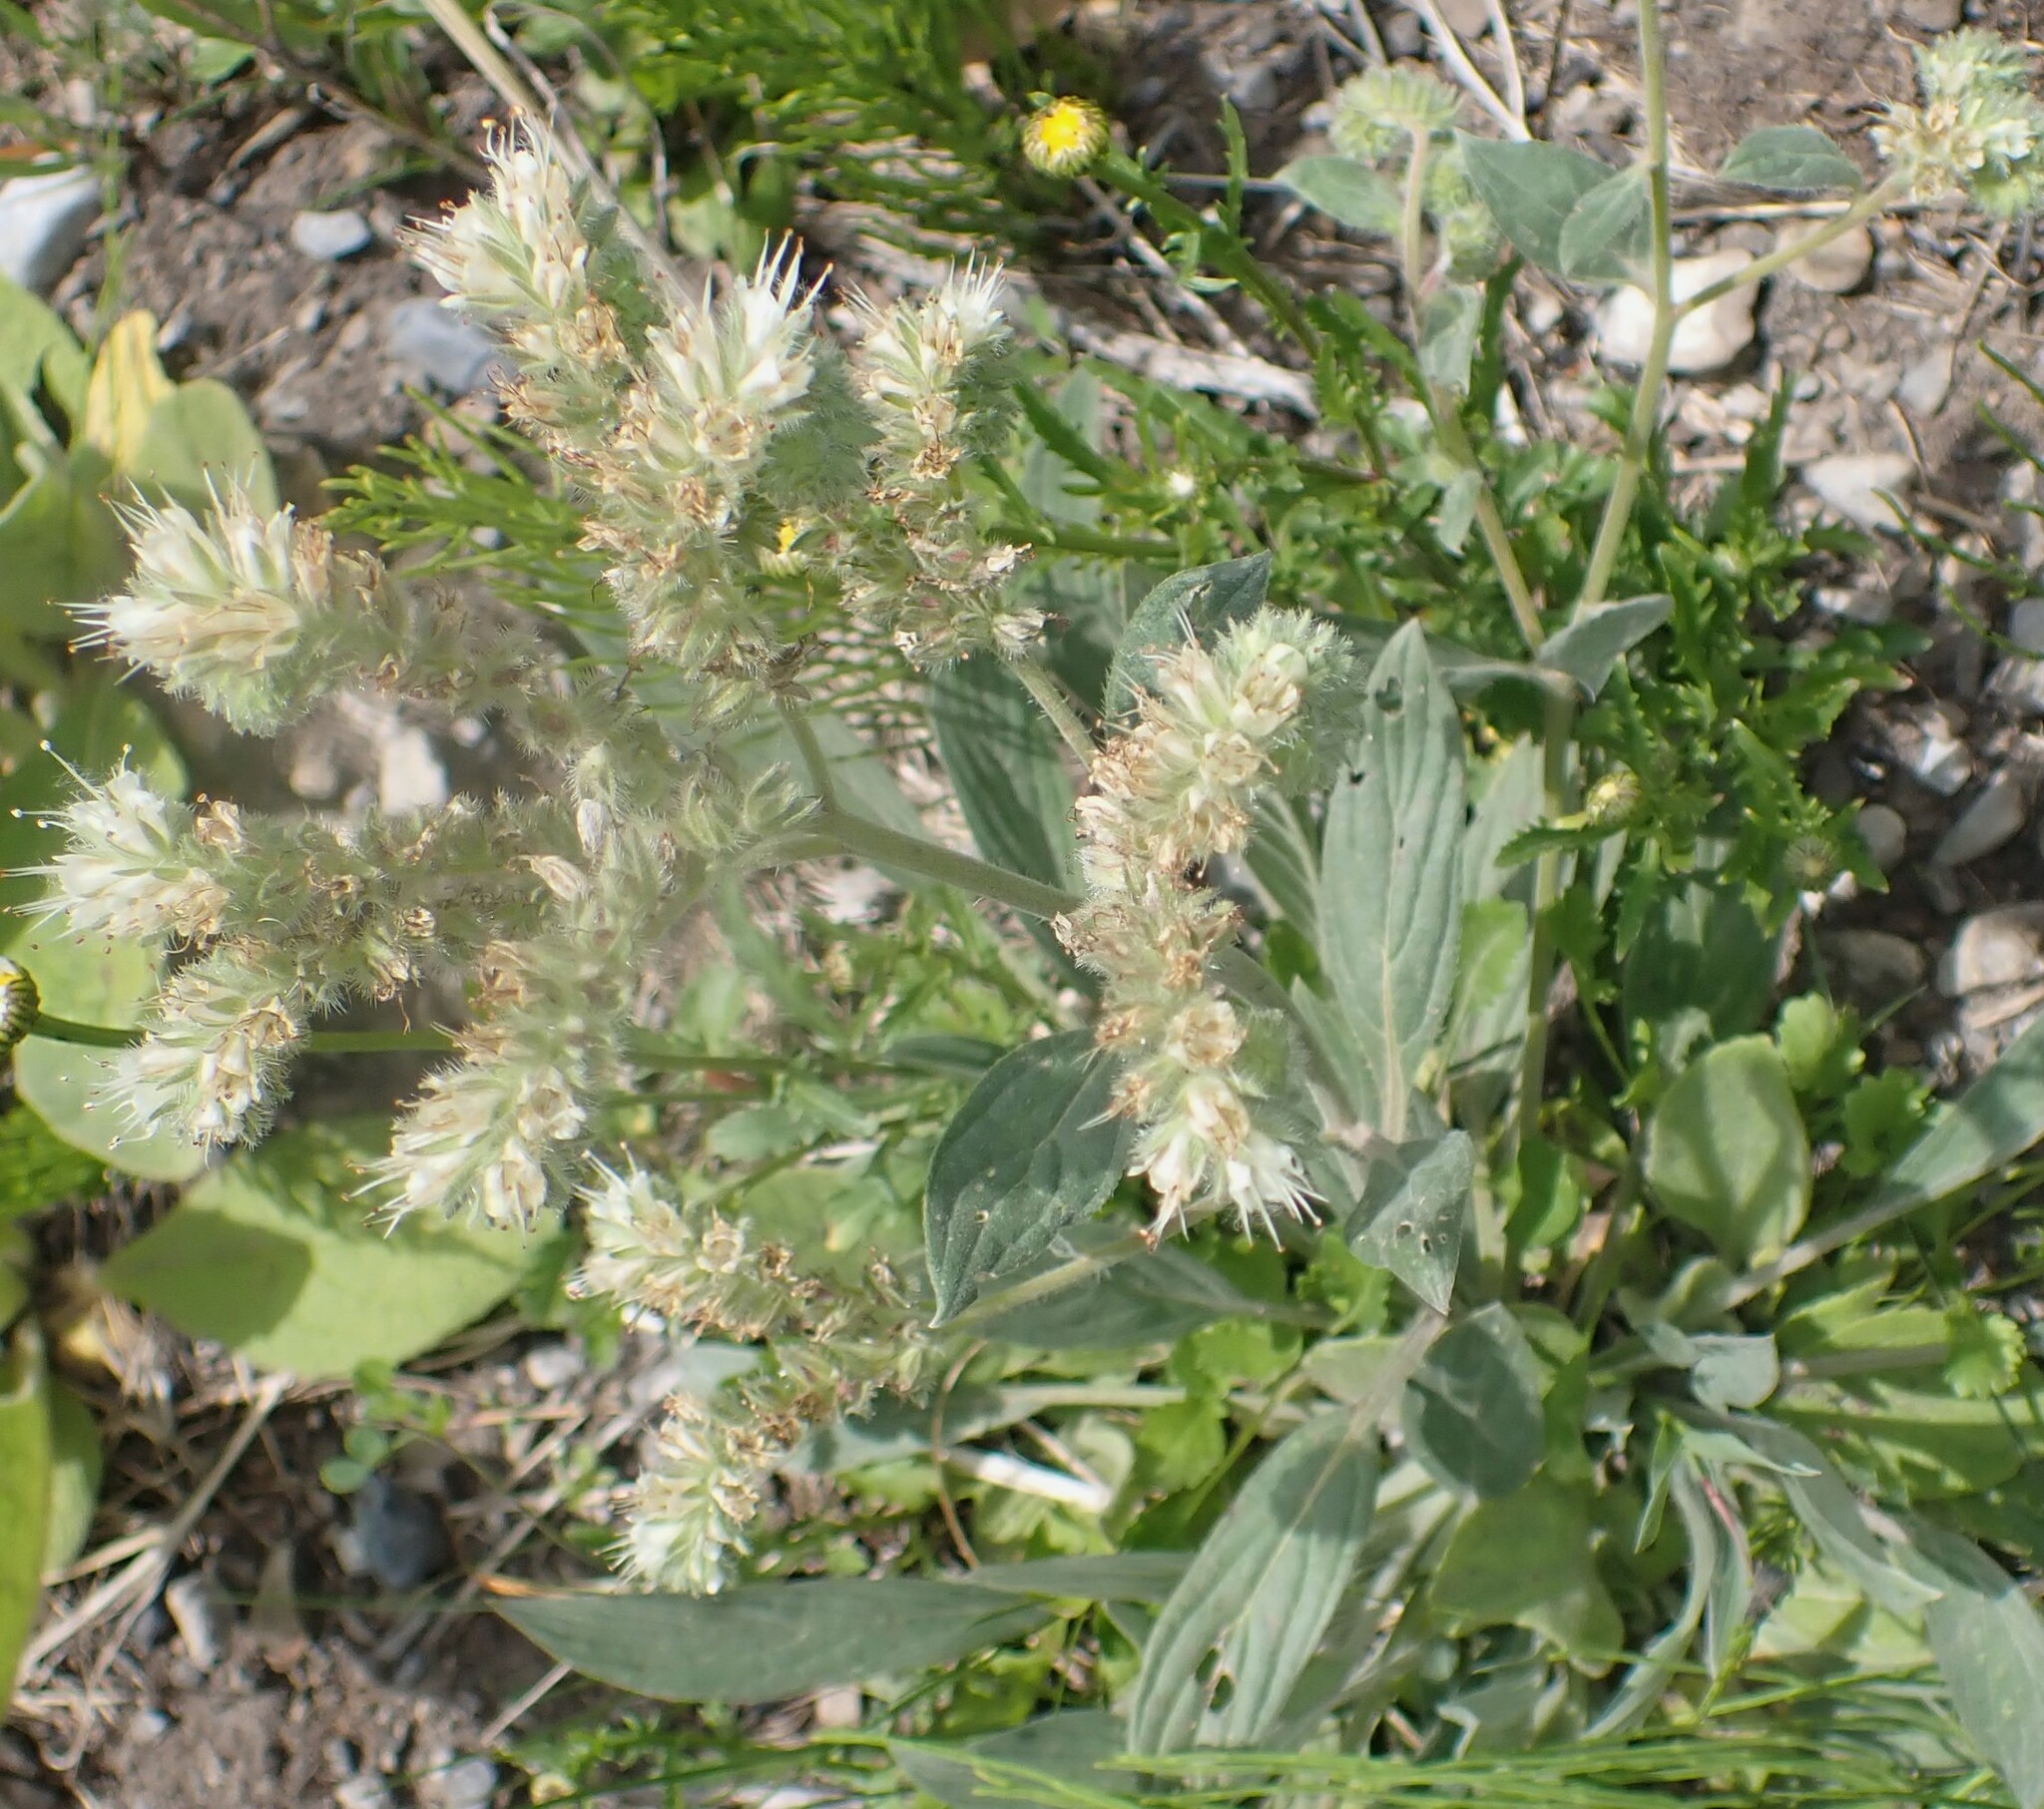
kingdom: Plantae
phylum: Tracheophyta
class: Magnoliopsida
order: Boraginales
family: Hydrophyllaceae
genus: Phacelia
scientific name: Phacelia hastata
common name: Silver-leaved phacelia
